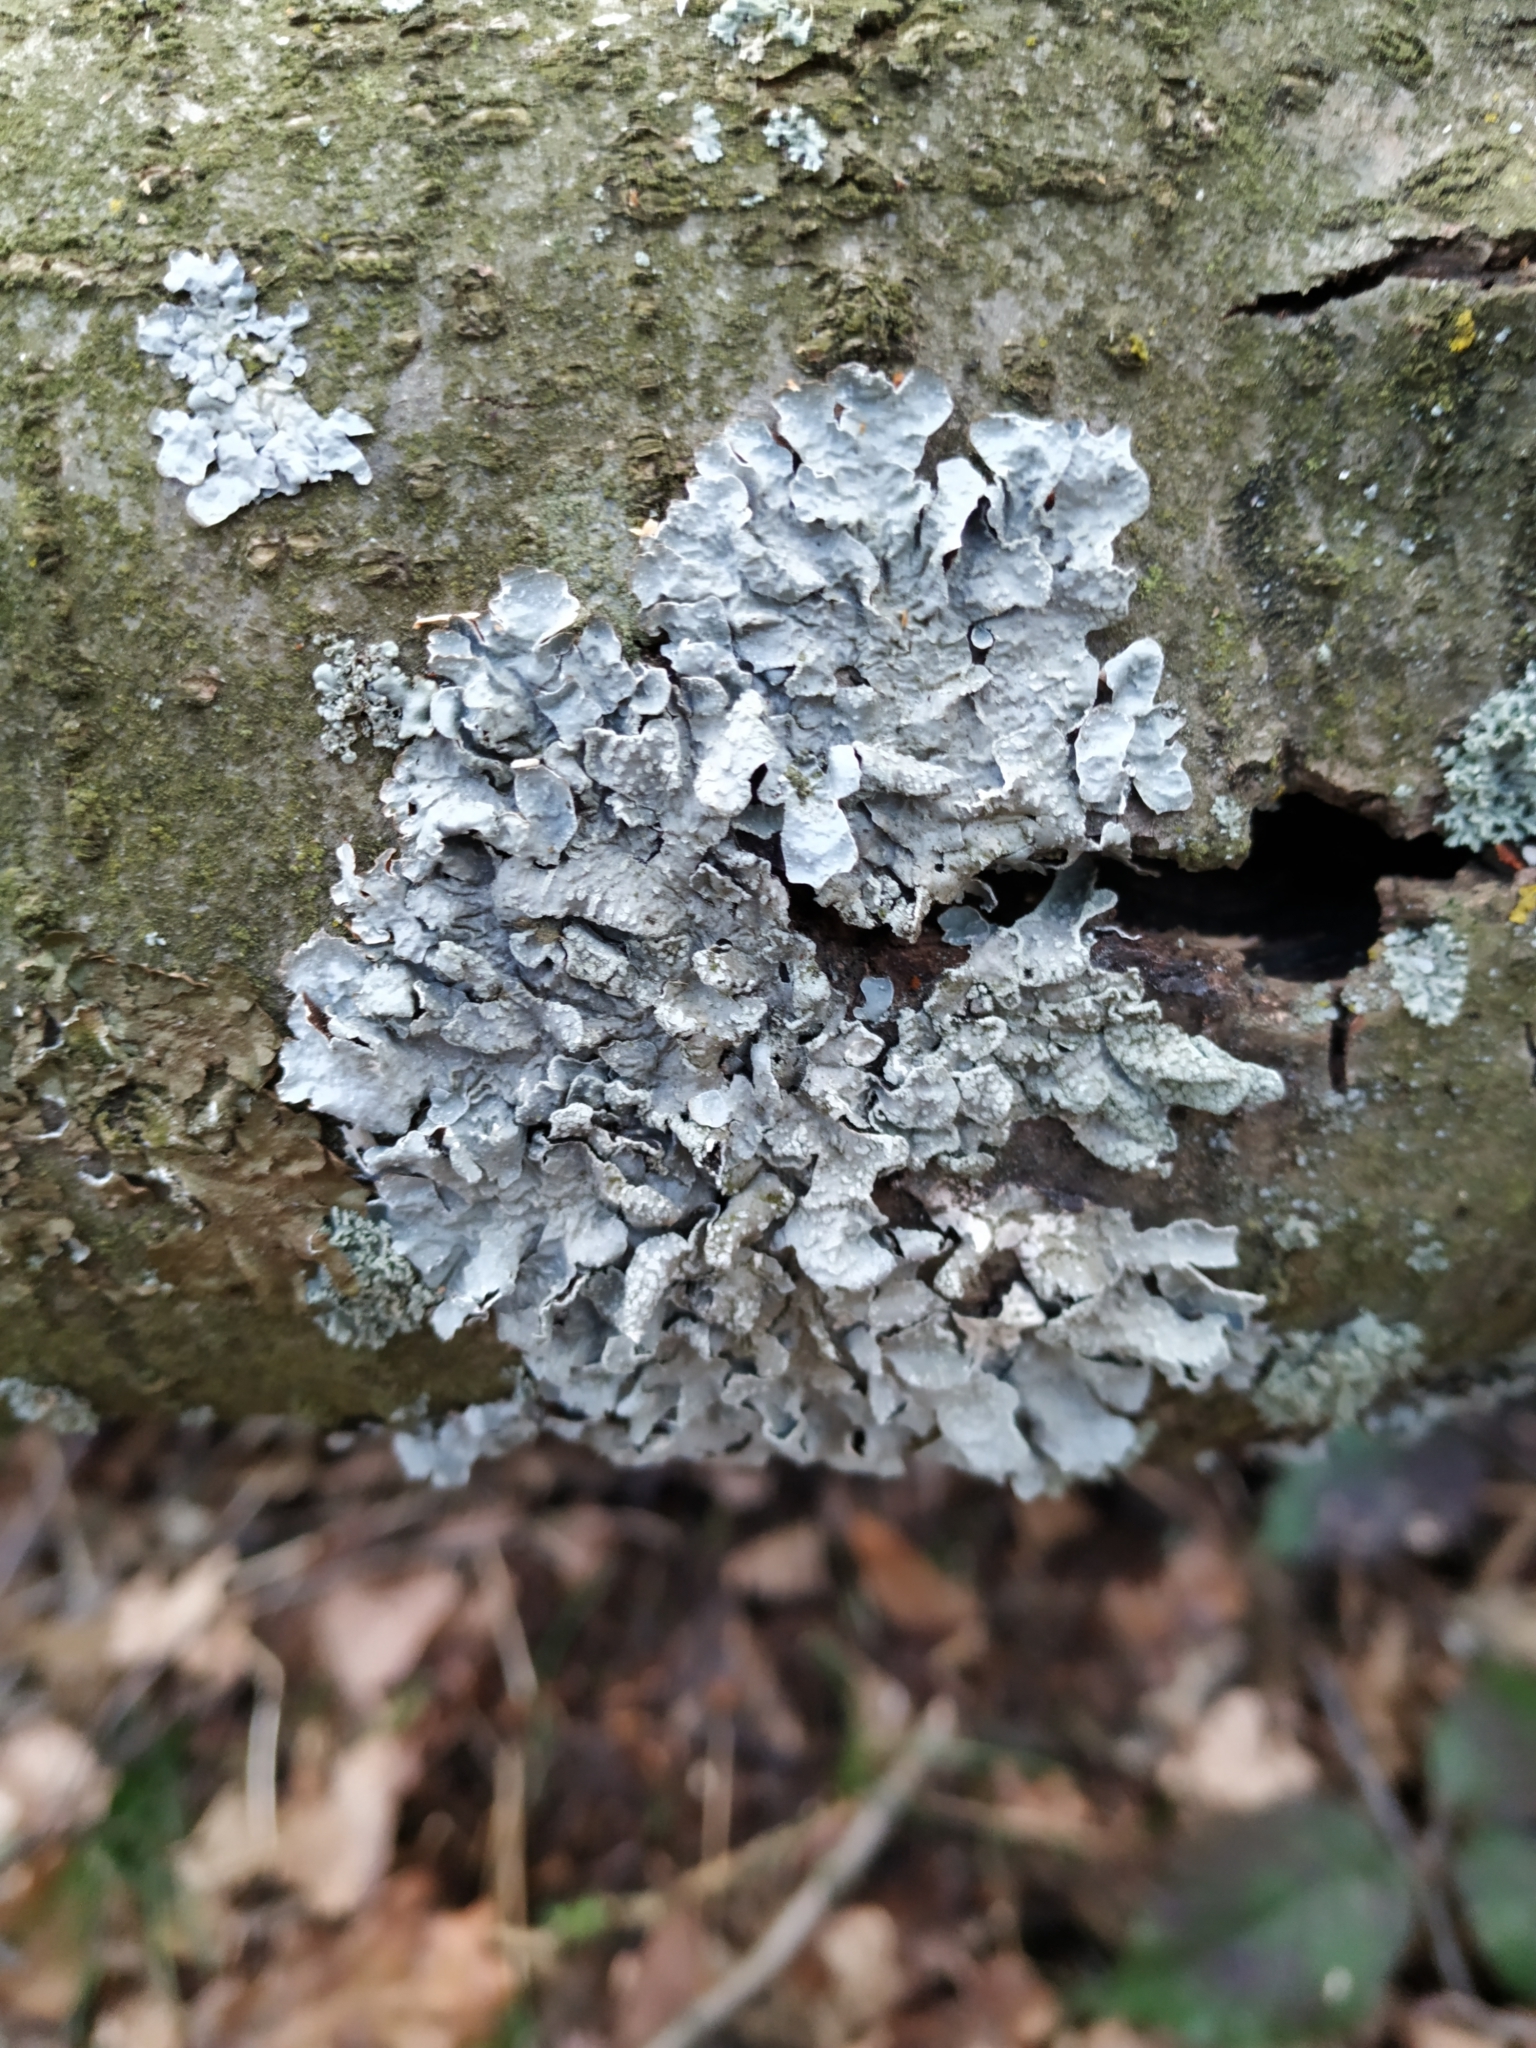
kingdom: Fungi
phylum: Ascomycota
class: Lecanoromycetes
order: Lecanorales
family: Parmeliaceae
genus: Parmelia
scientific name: Parmelia sulcata
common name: Netted shield lichen
